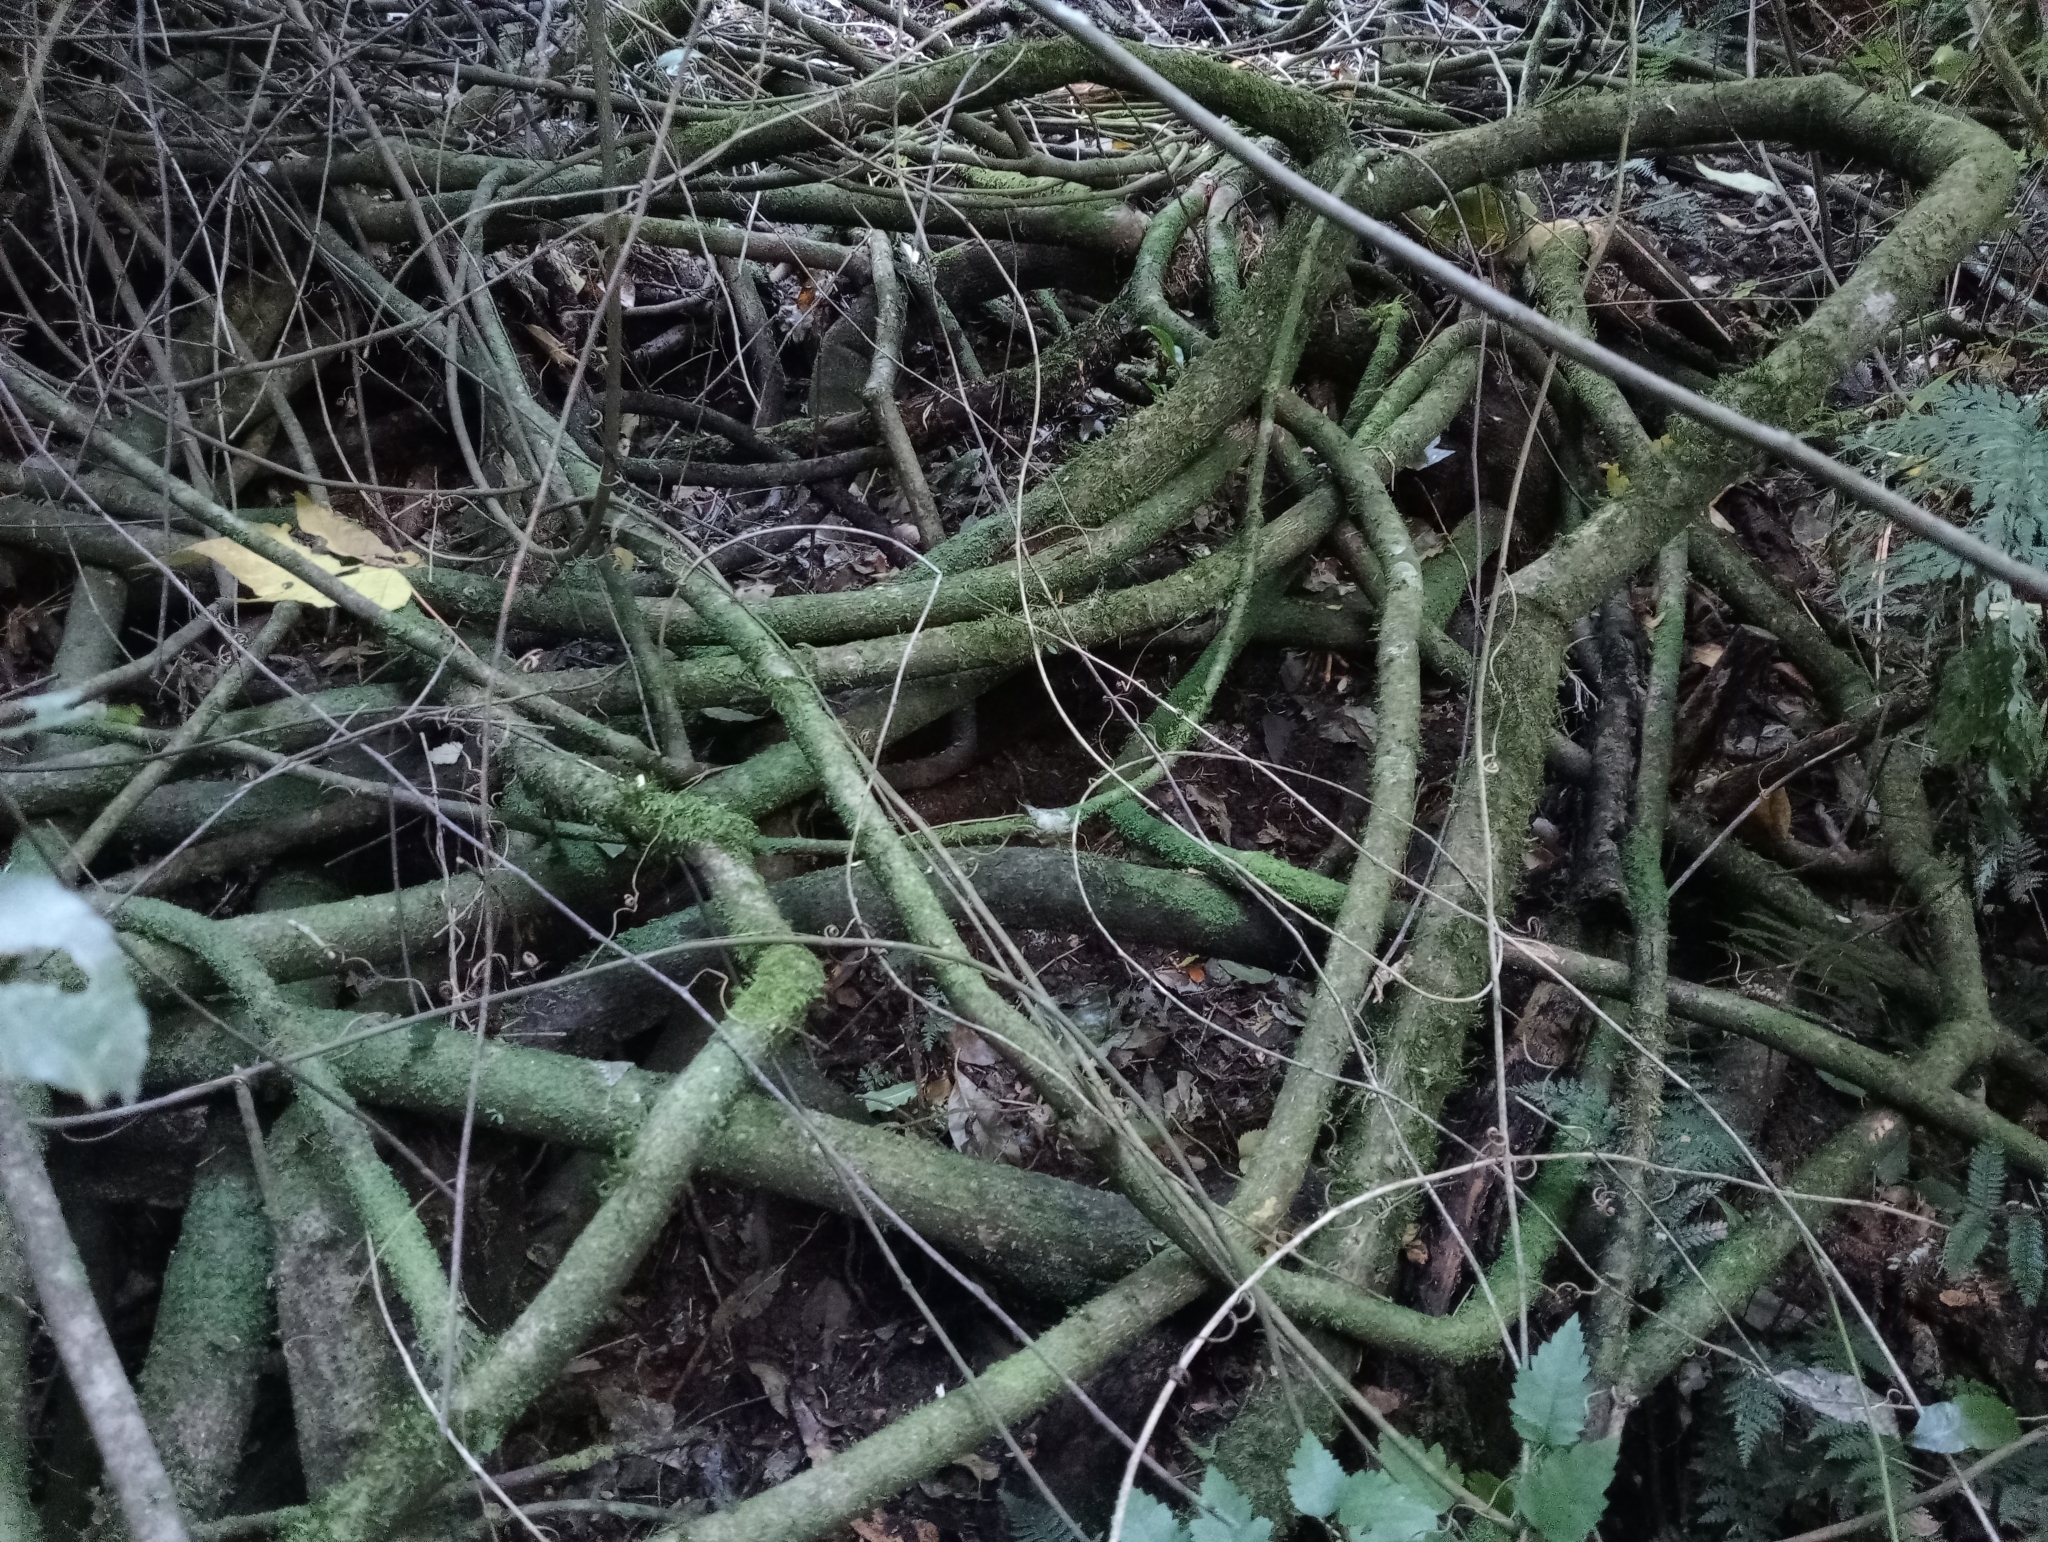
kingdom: Plantae
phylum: Tracheophyta
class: Magnoliopsida
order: Malpighiales
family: Passifloraceae
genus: Passiflora
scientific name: Passiflora tetrandra
